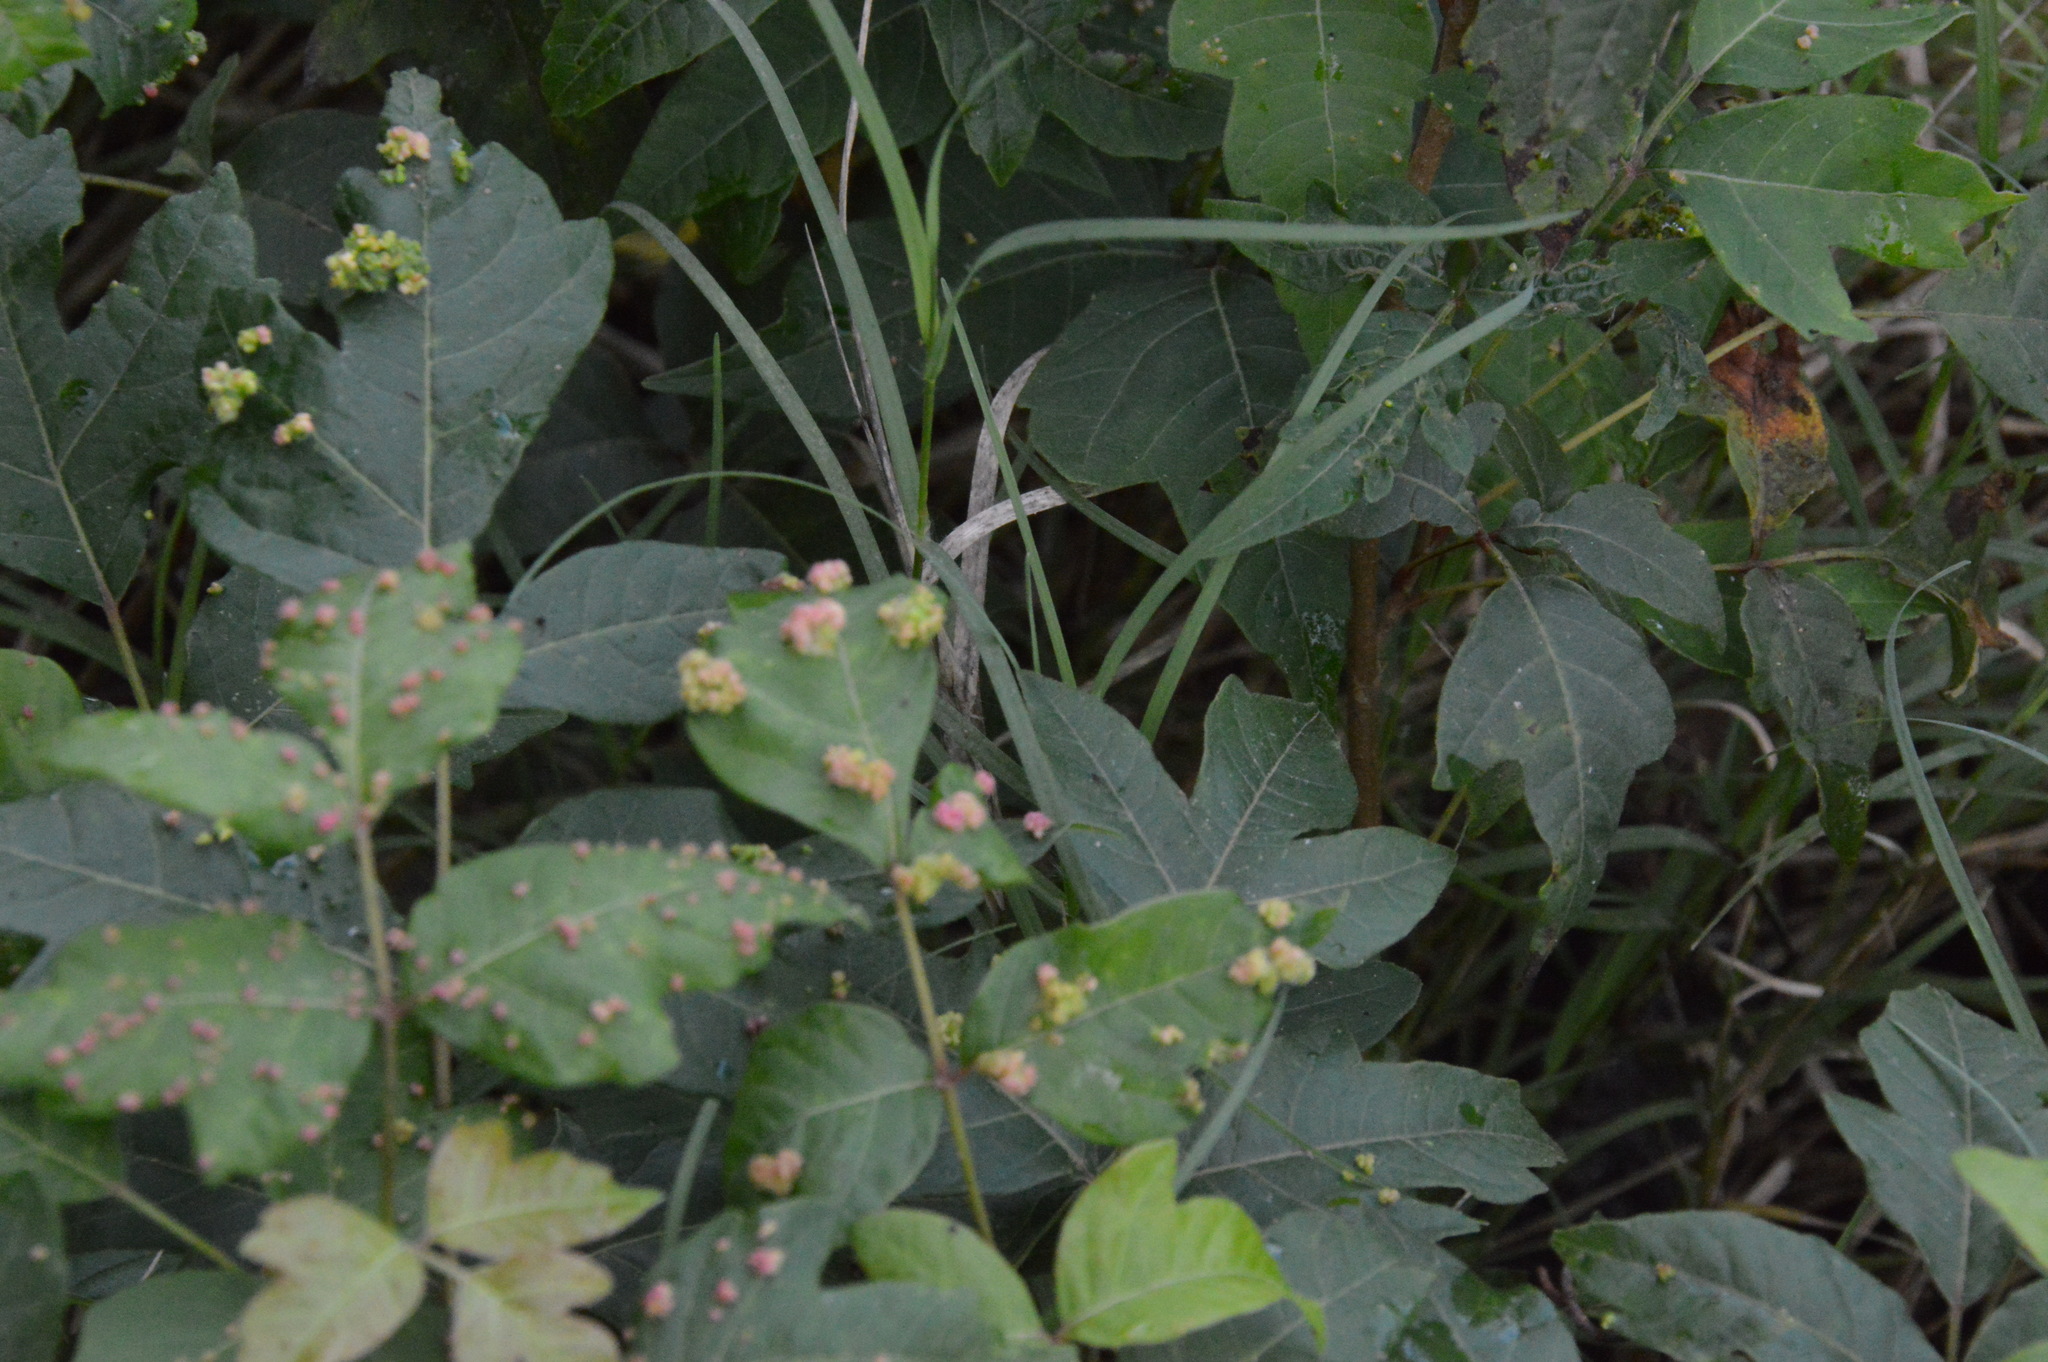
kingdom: Animalia
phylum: Arthropoda
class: Arachnida
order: Trombidiformes
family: Eriophyidae
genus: Aculops
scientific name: Aculops
